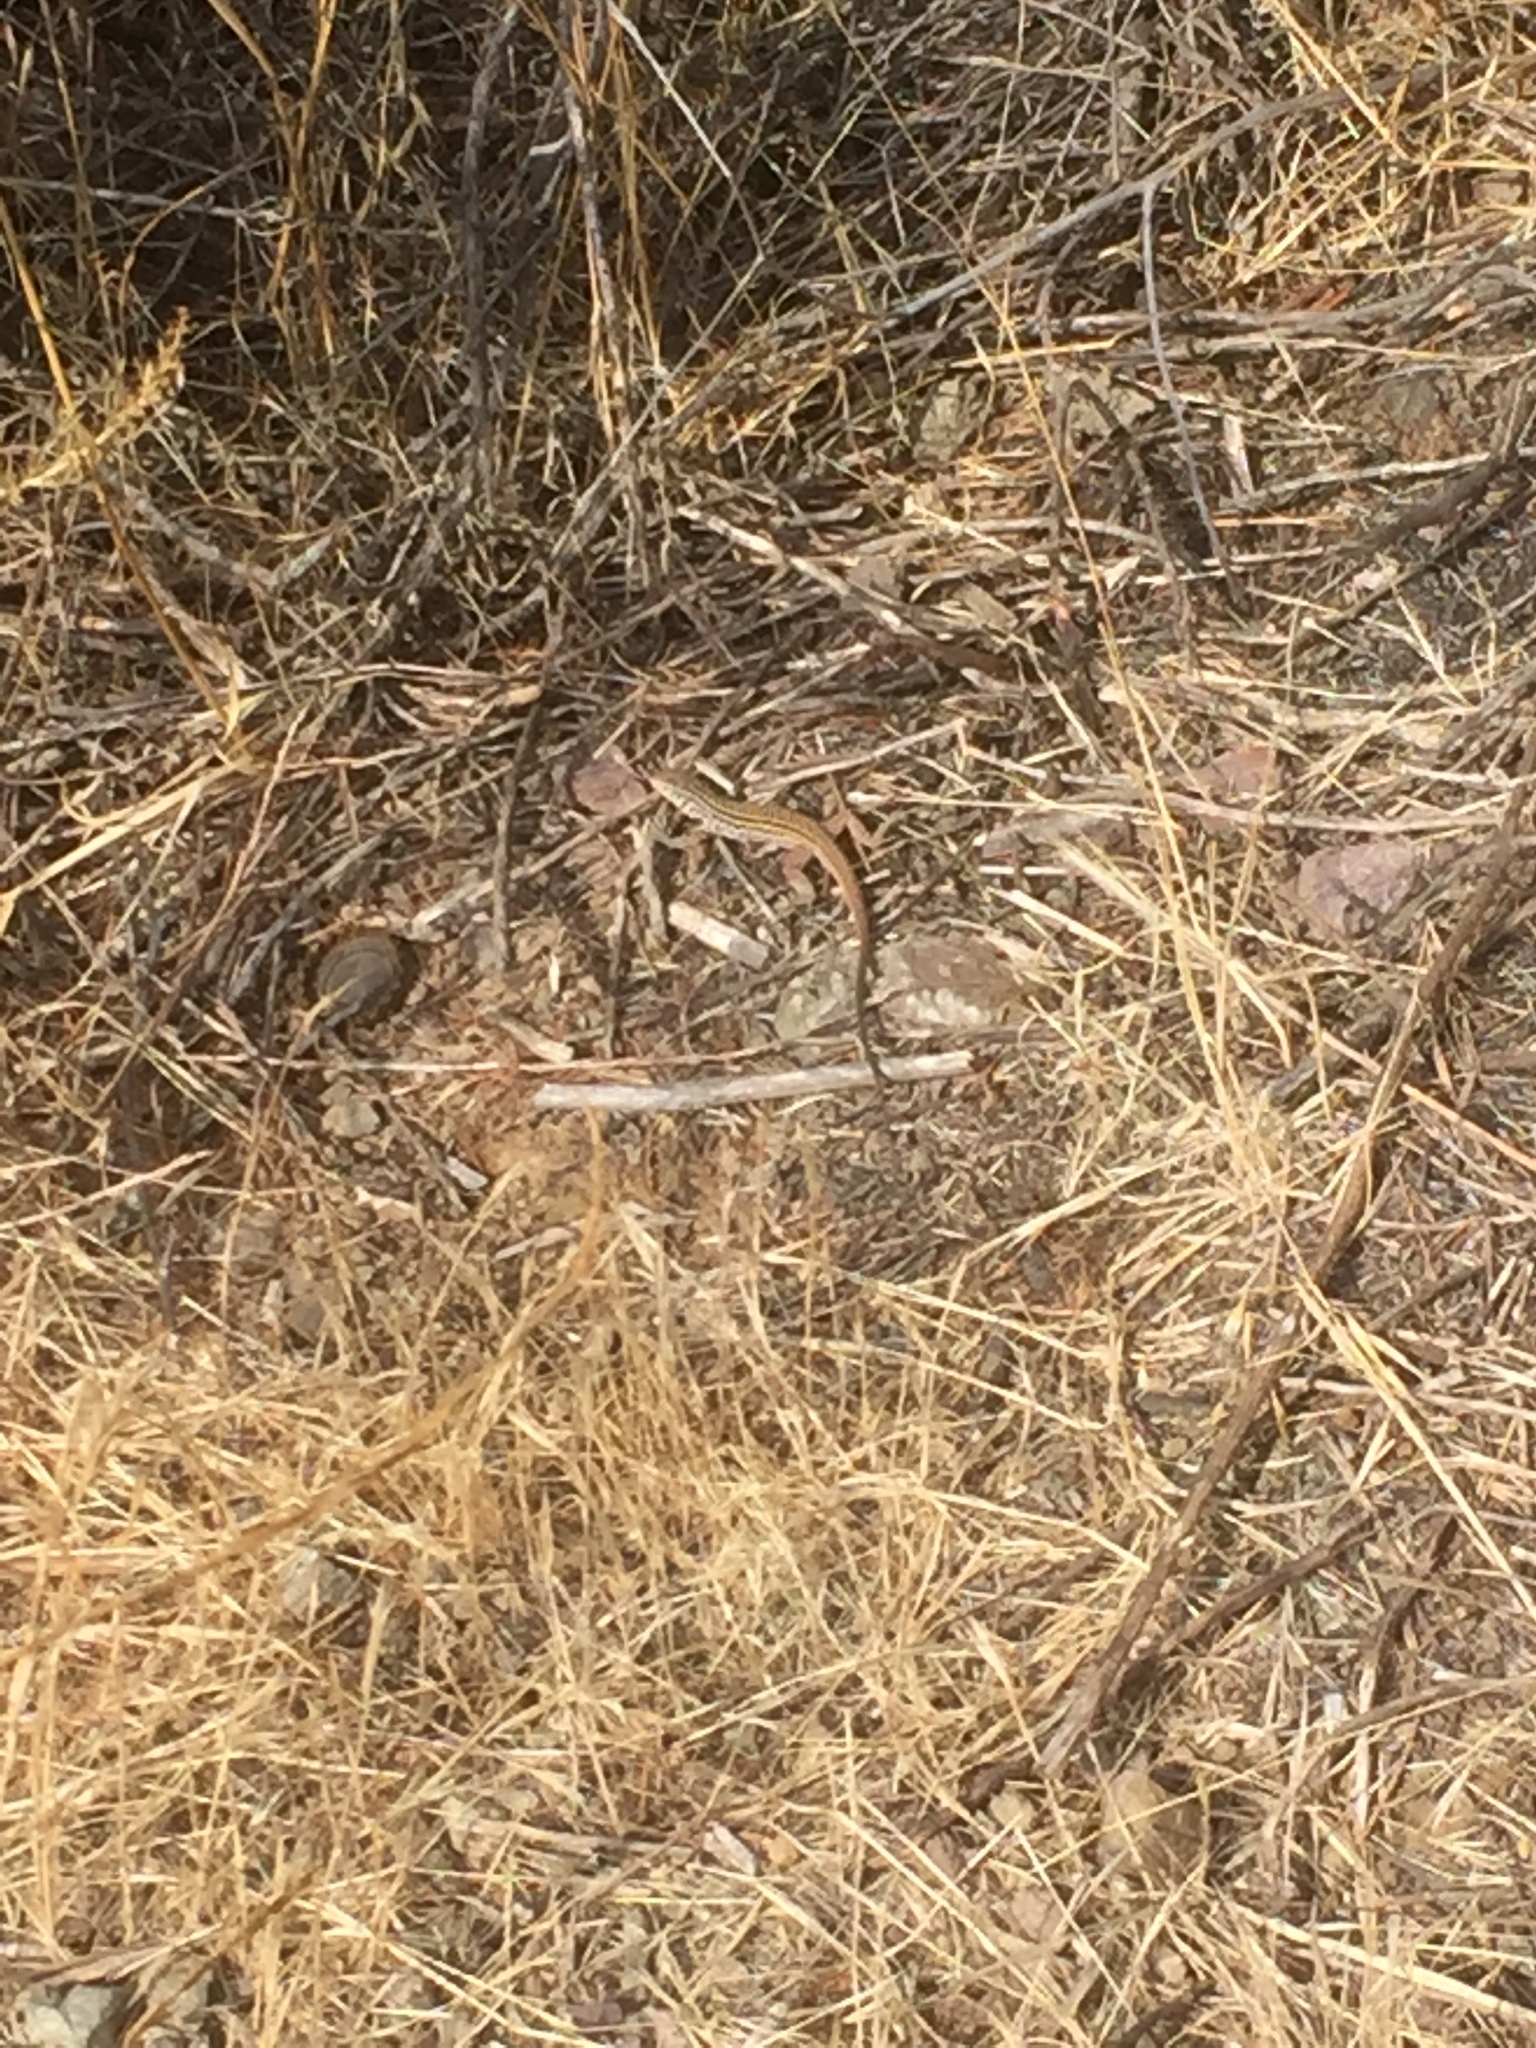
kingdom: Animalia
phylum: Chordata
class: Squamata
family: Teiidae
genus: Aspidoscelis
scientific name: Aspidoscelis tigris
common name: Tiger whiptail
